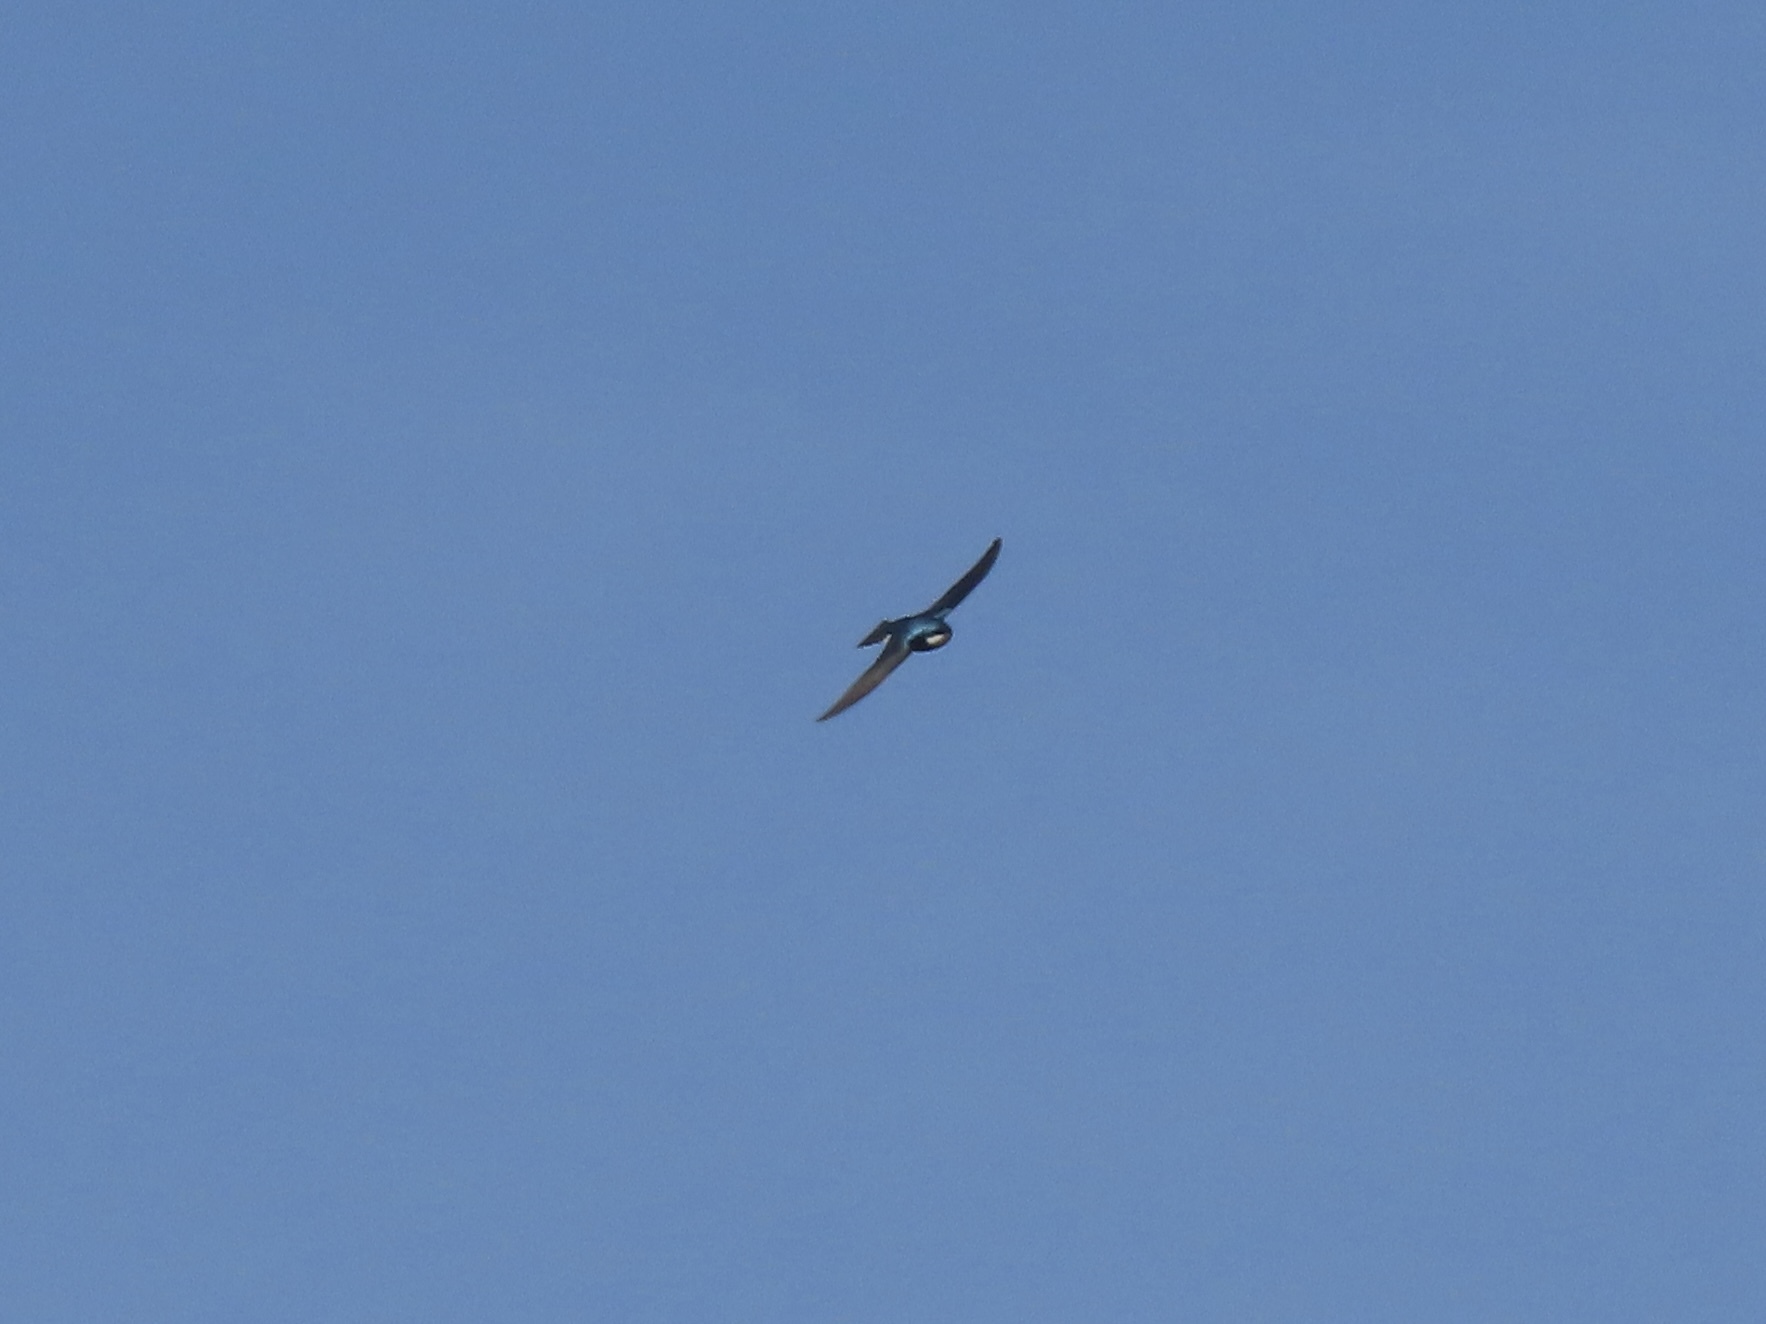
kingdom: Animalia
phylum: Chordata
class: Aves
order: Passeriformes
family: Hirundinidae
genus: Tachycineta
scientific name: Tachycineta bicolor
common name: Tree swallow
